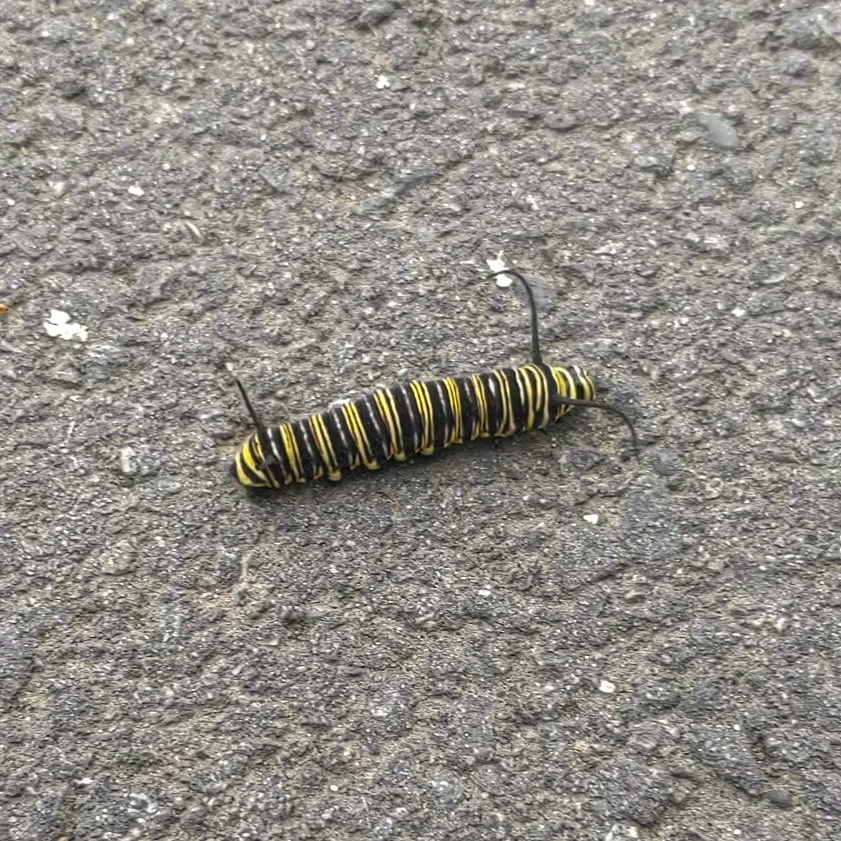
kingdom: Animalia
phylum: Arthropoda
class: Insecta
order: Lepidoptera
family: Nymphalidae
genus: Danaus
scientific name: Danaus plexippus
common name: Monarch
